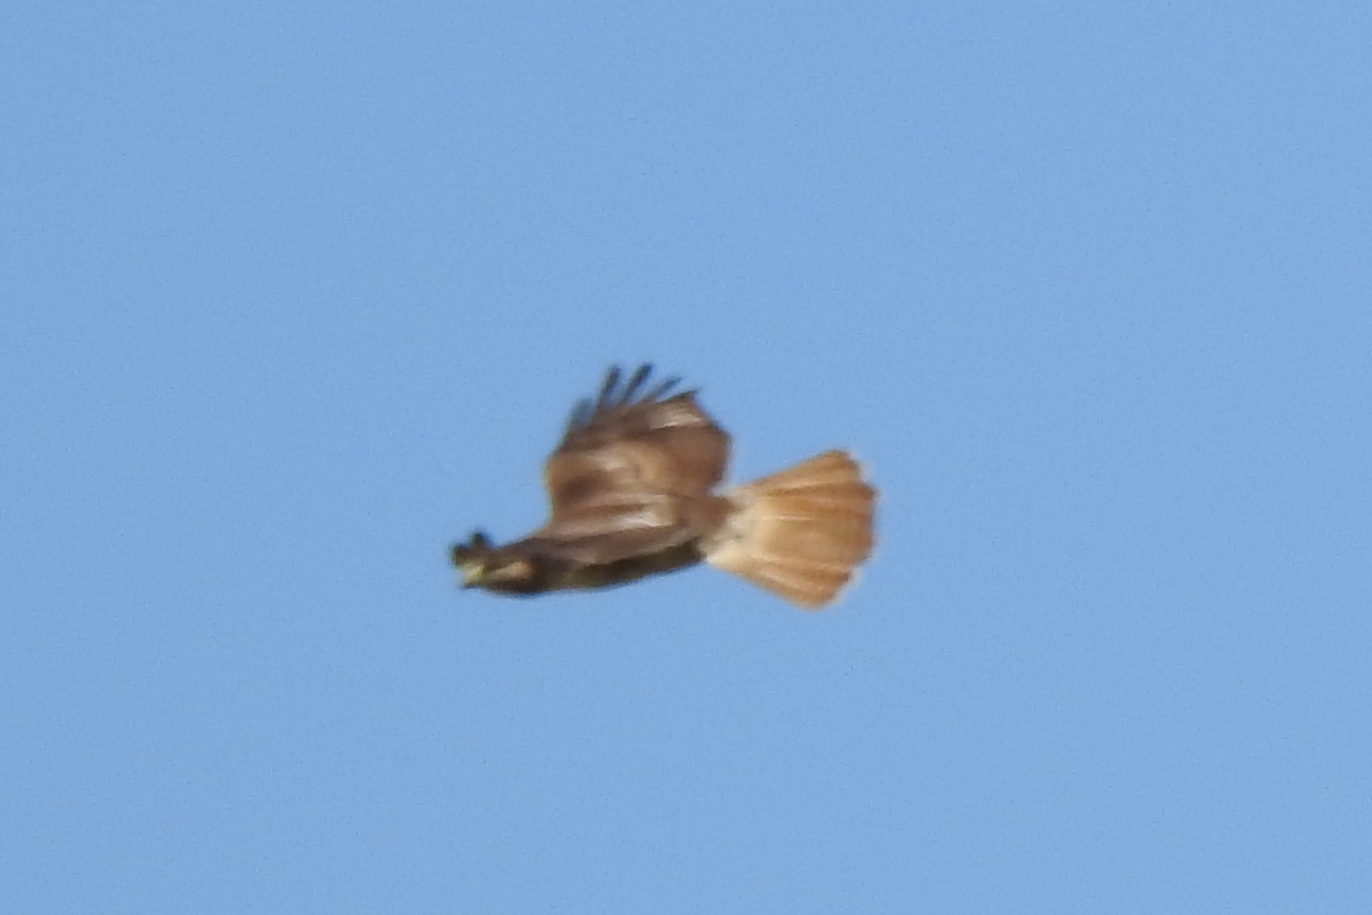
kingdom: Animalia
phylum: Chordata
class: Aves
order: Accipitriformes
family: Accipitridae
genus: Buteo
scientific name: Buteo jamaicensis
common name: Red-tailed hawk
